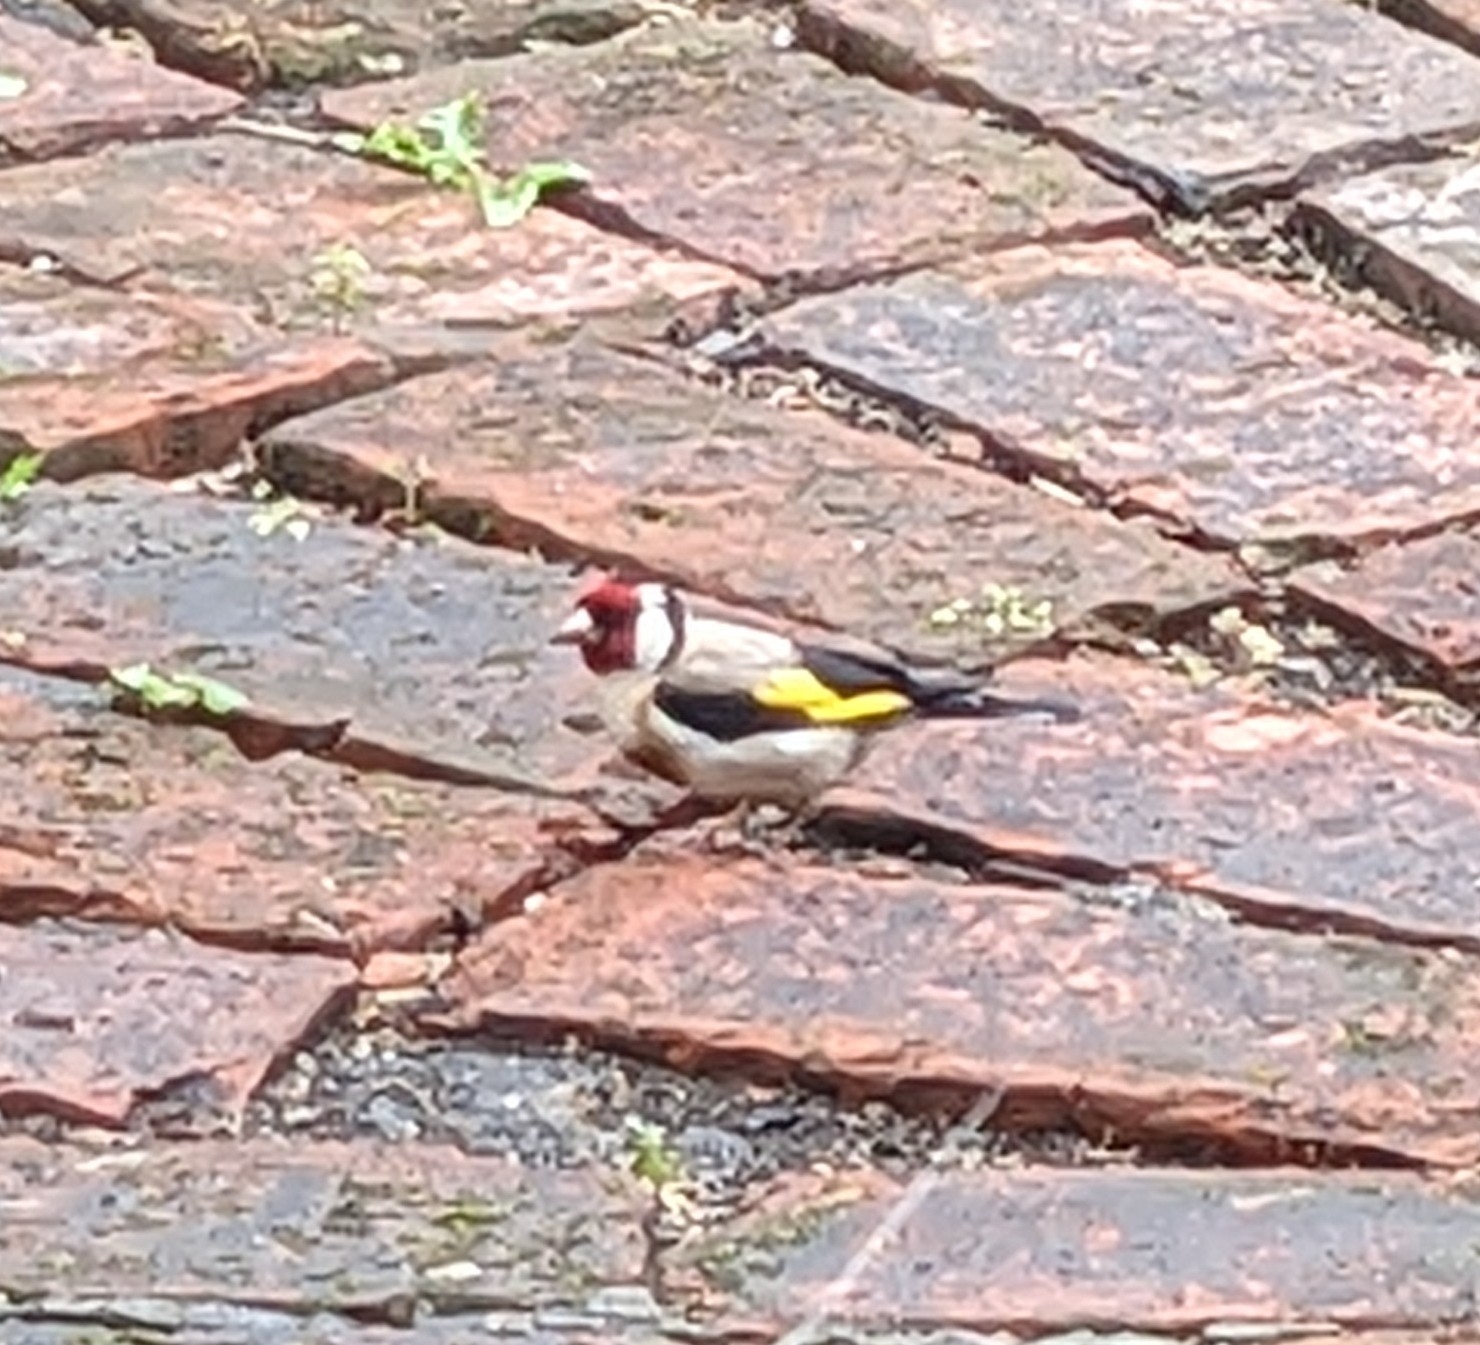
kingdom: Animalia
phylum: Chordata
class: Aves
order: Passeriformes
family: Fringillidae
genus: Carduelis
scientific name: Carduelis carduelis
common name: European goldfinch
